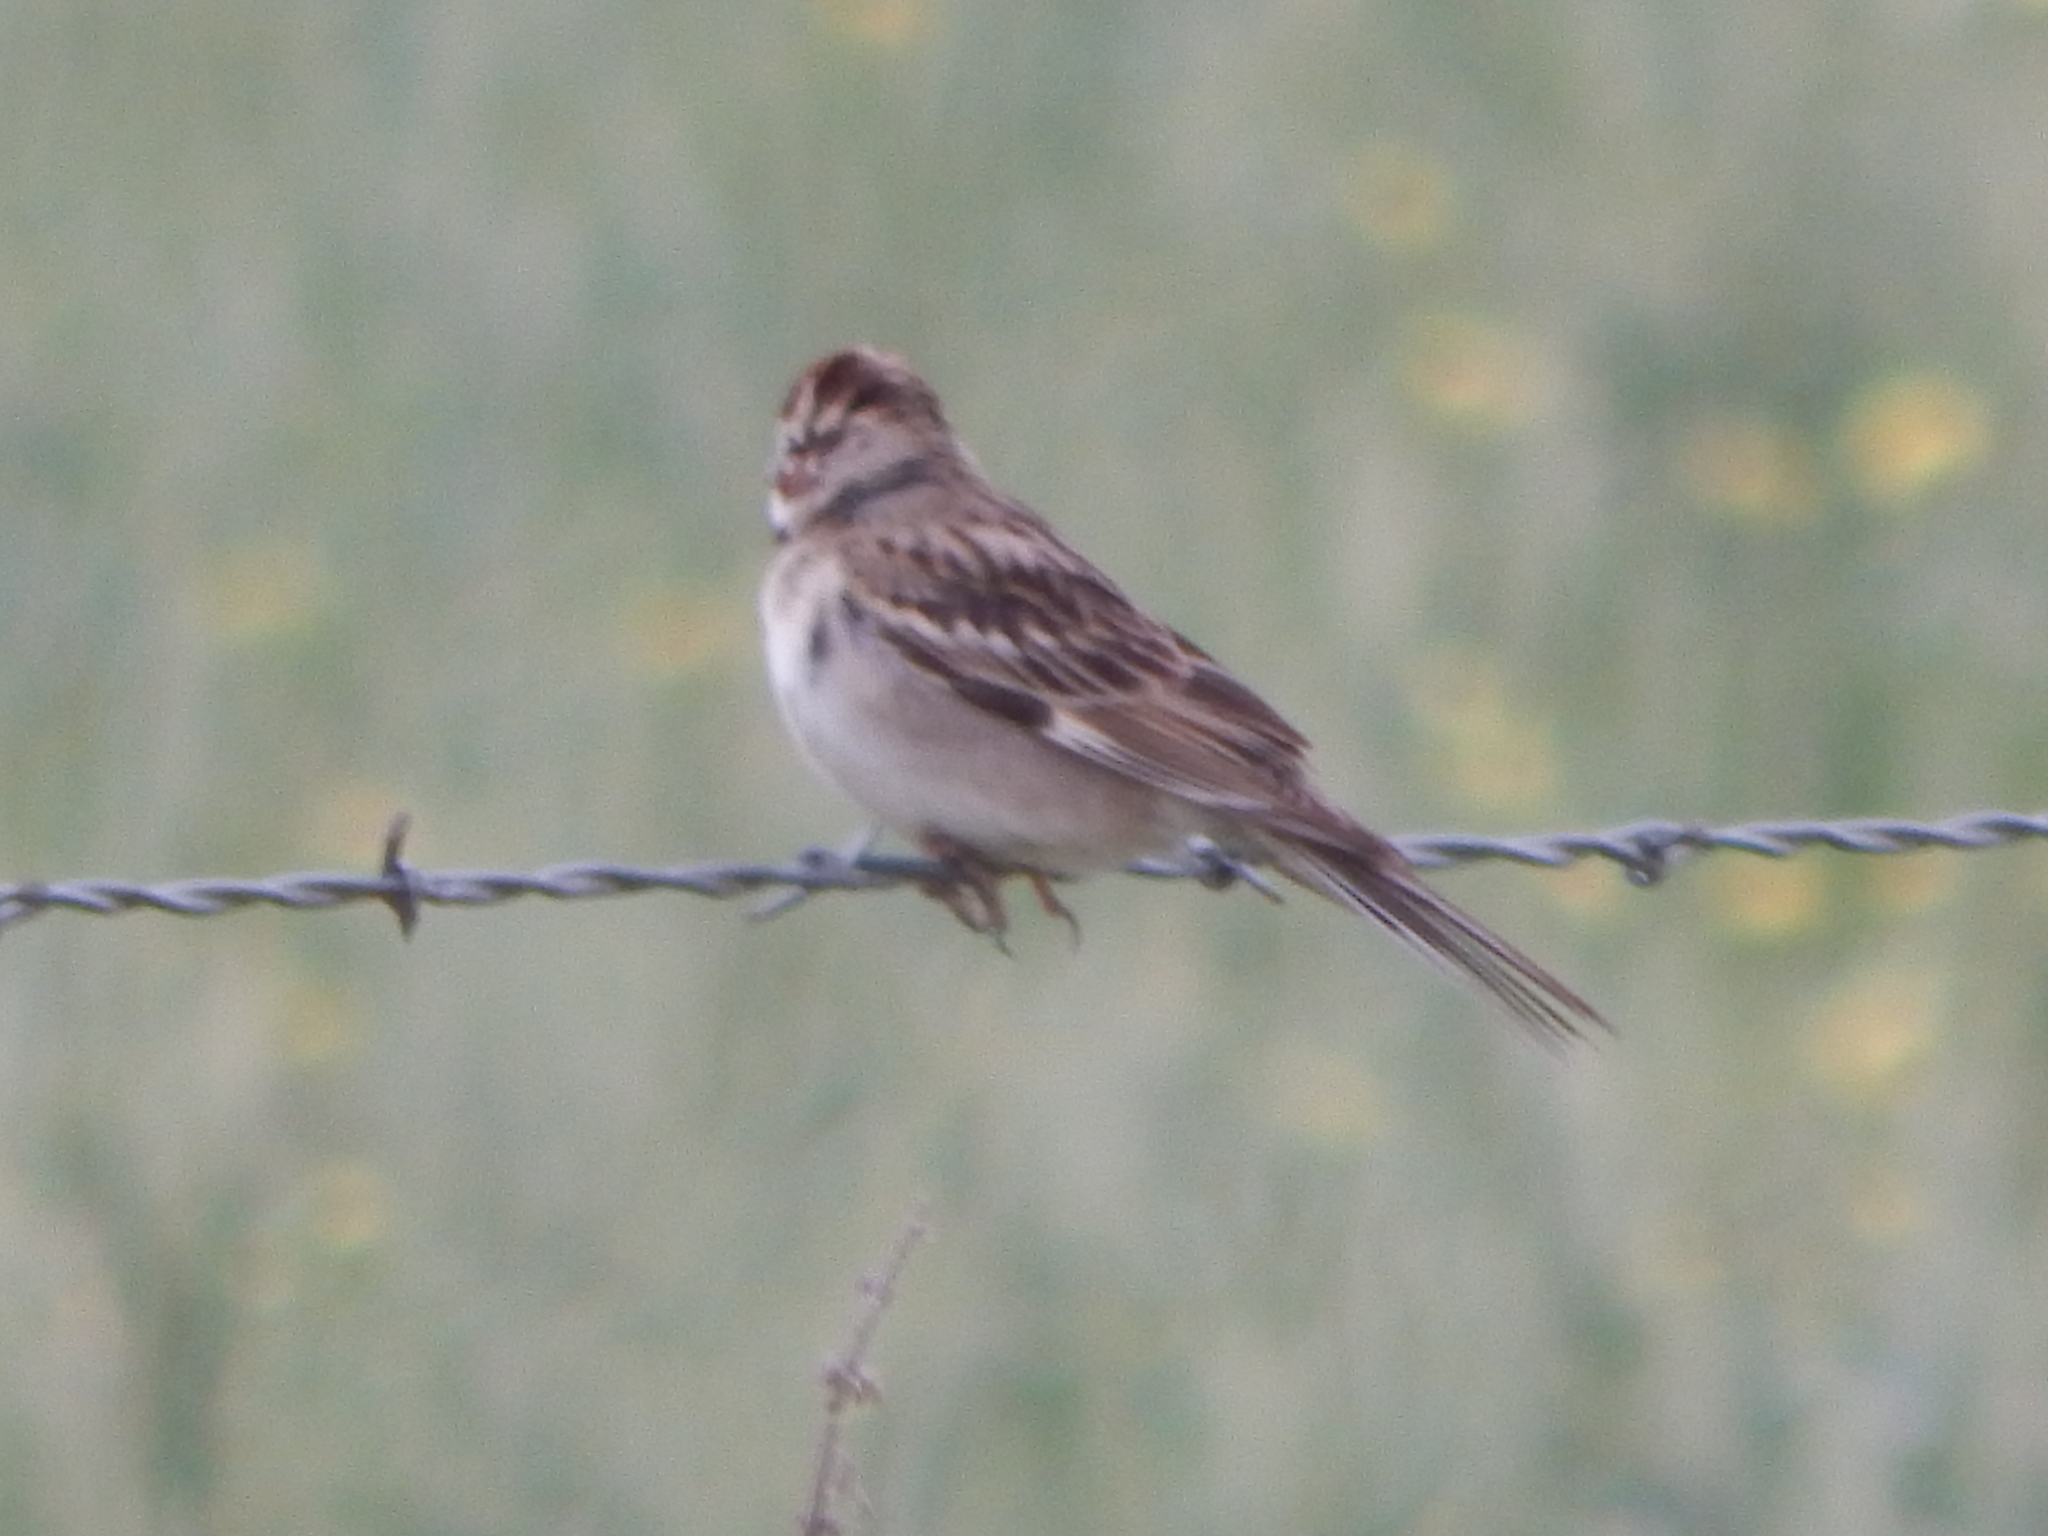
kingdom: Animalia
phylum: Chordata
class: Aves
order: Passeriformes
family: Passerellidae
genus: Chondestes
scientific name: Chondestes grammacus
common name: Lark sparrow
